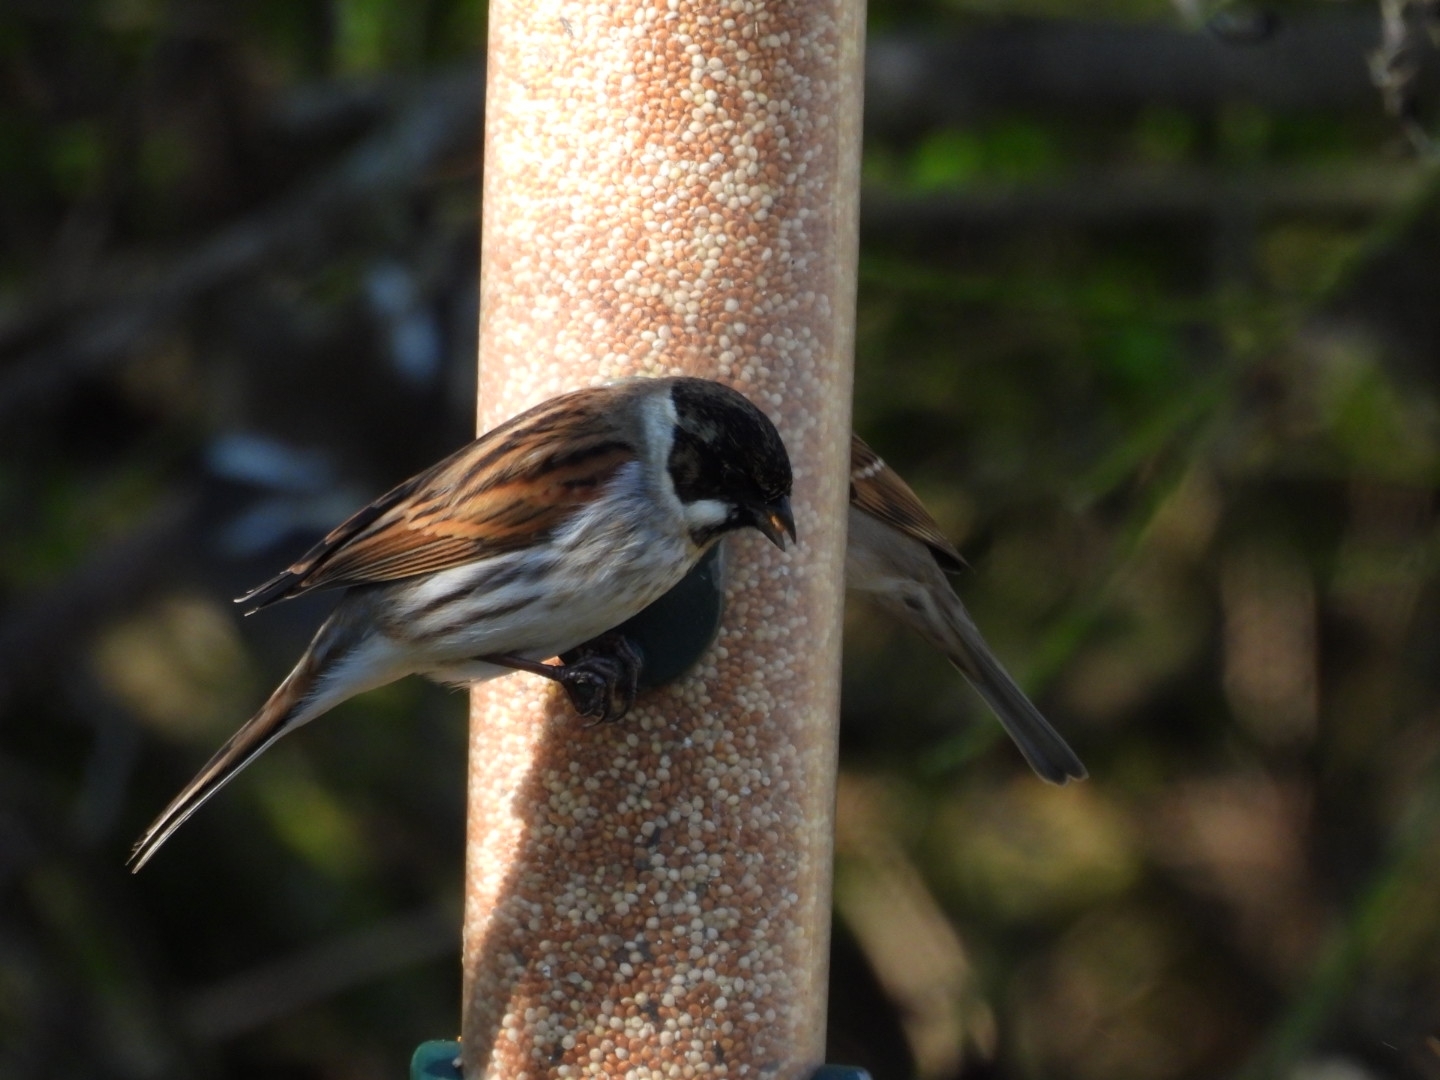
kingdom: Animalia
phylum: Chordata
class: Aves
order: Passeriformes
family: Emberizidae
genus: Emberiza
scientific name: Emberiza schoeniclus
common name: Reed bunting
